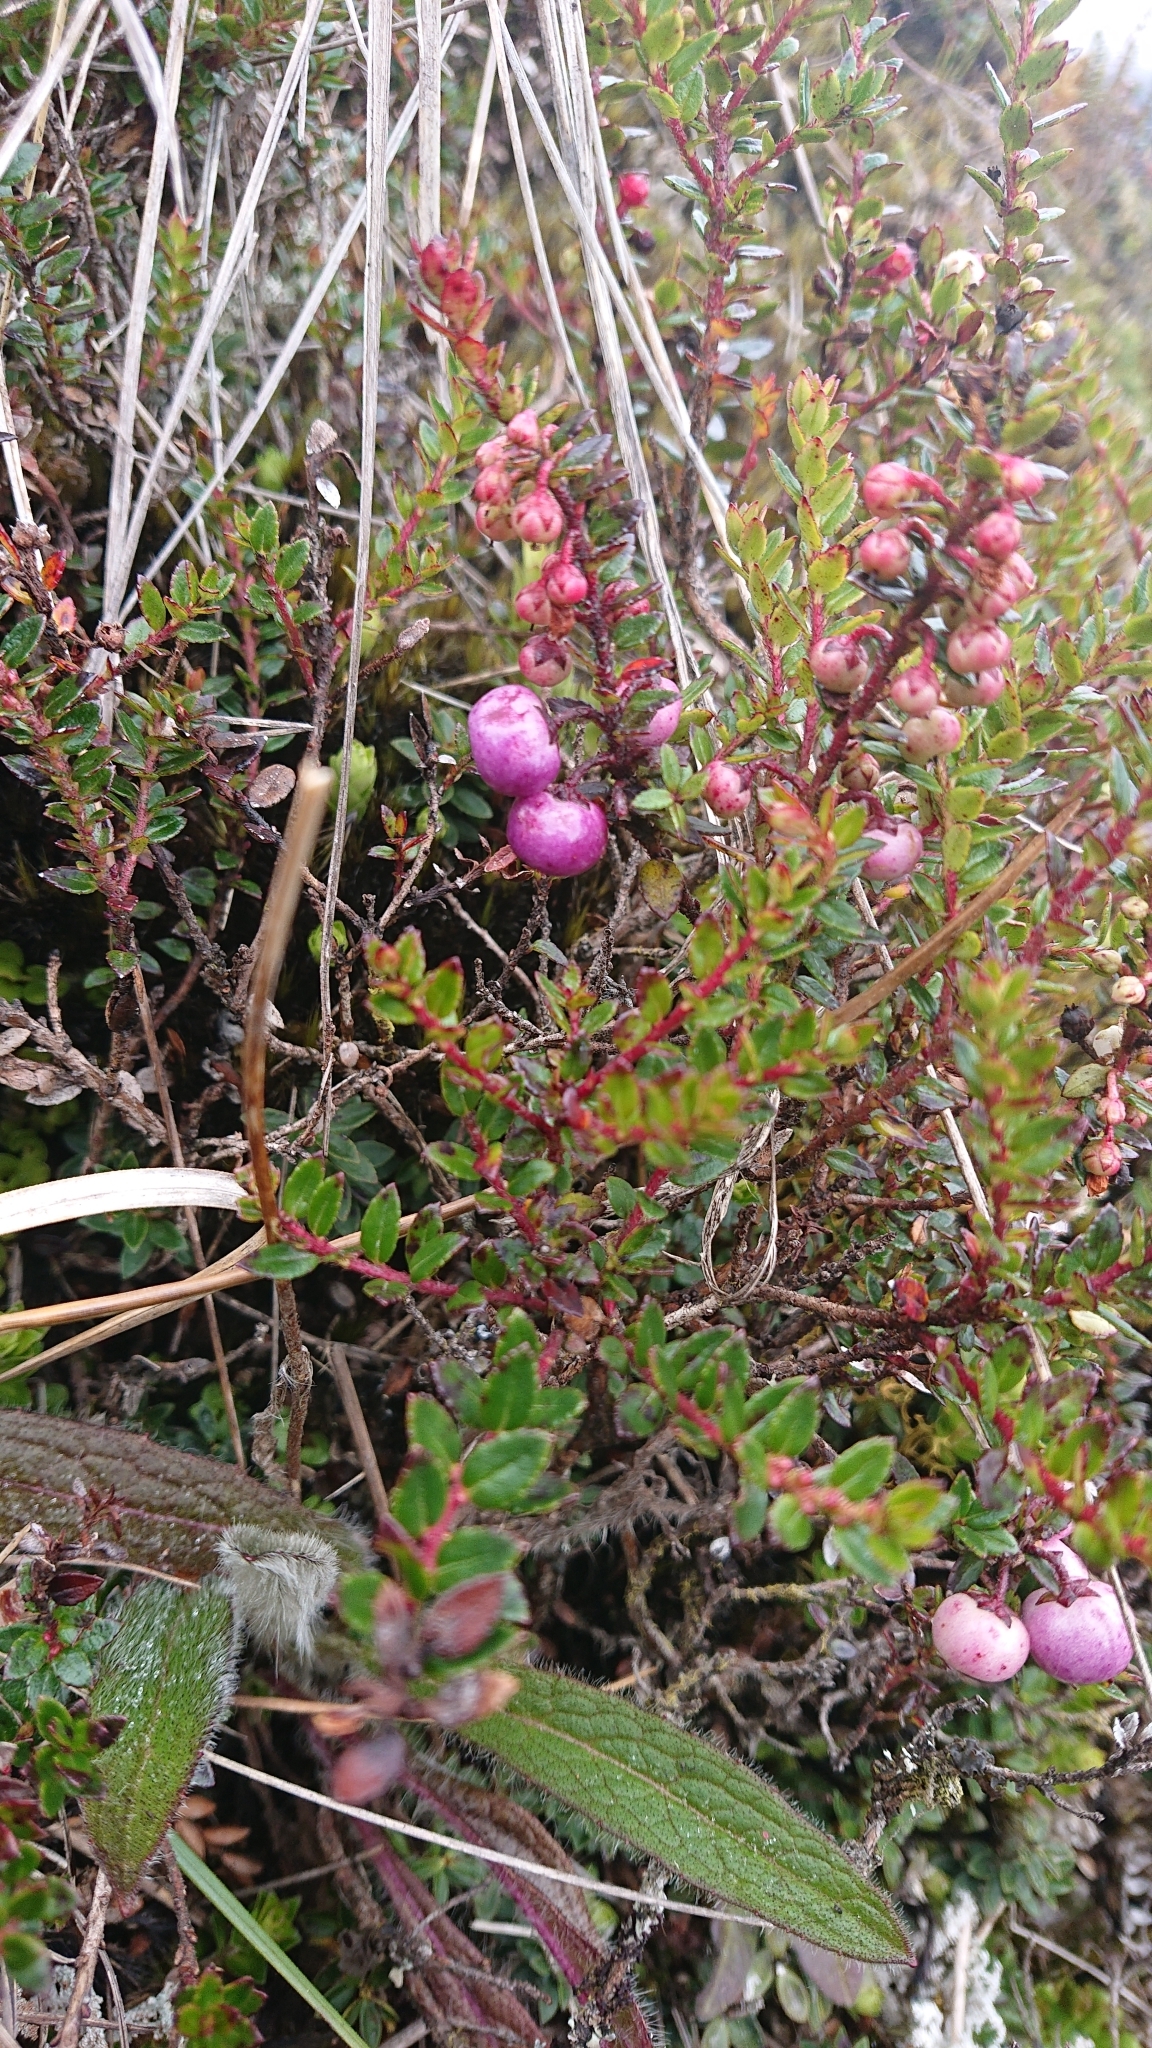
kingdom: Plantae
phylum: Tracheophyta
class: Magnoliopsida
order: Ericales
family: Ericaceae
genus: Gaultheria
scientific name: Gaultheria myrsinoides
